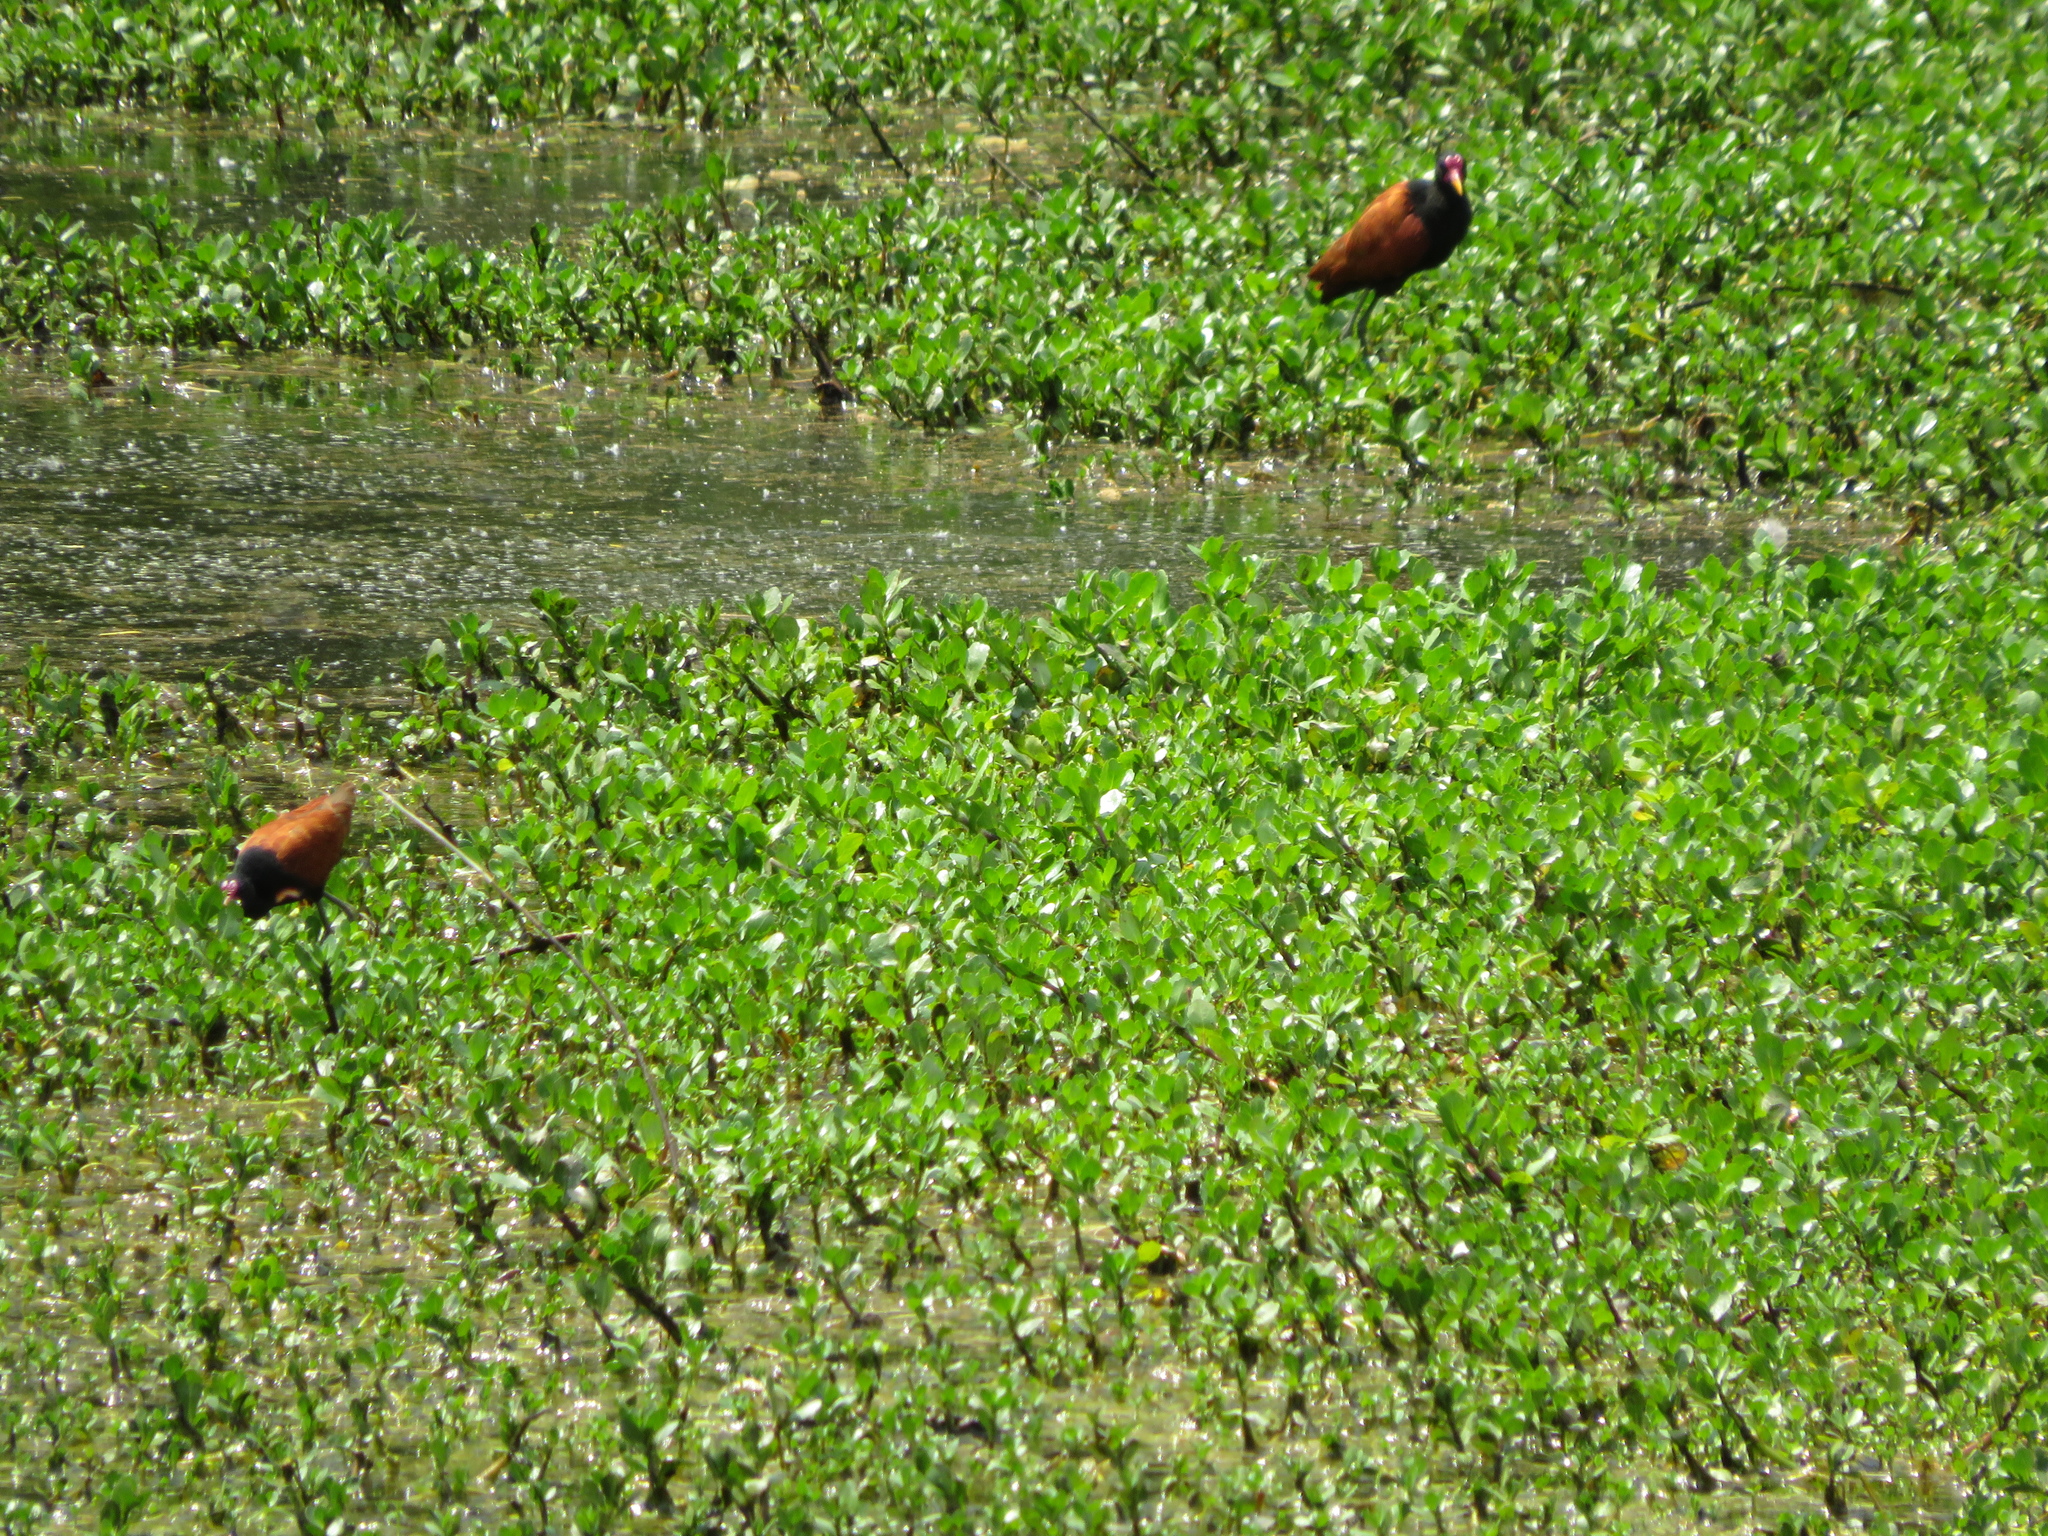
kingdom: Animalia
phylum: Chordata
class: Aves
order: Charadriiformes
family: Jacanidae
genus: Jacana
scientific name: Jacana jacana
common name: Wattled jacana
